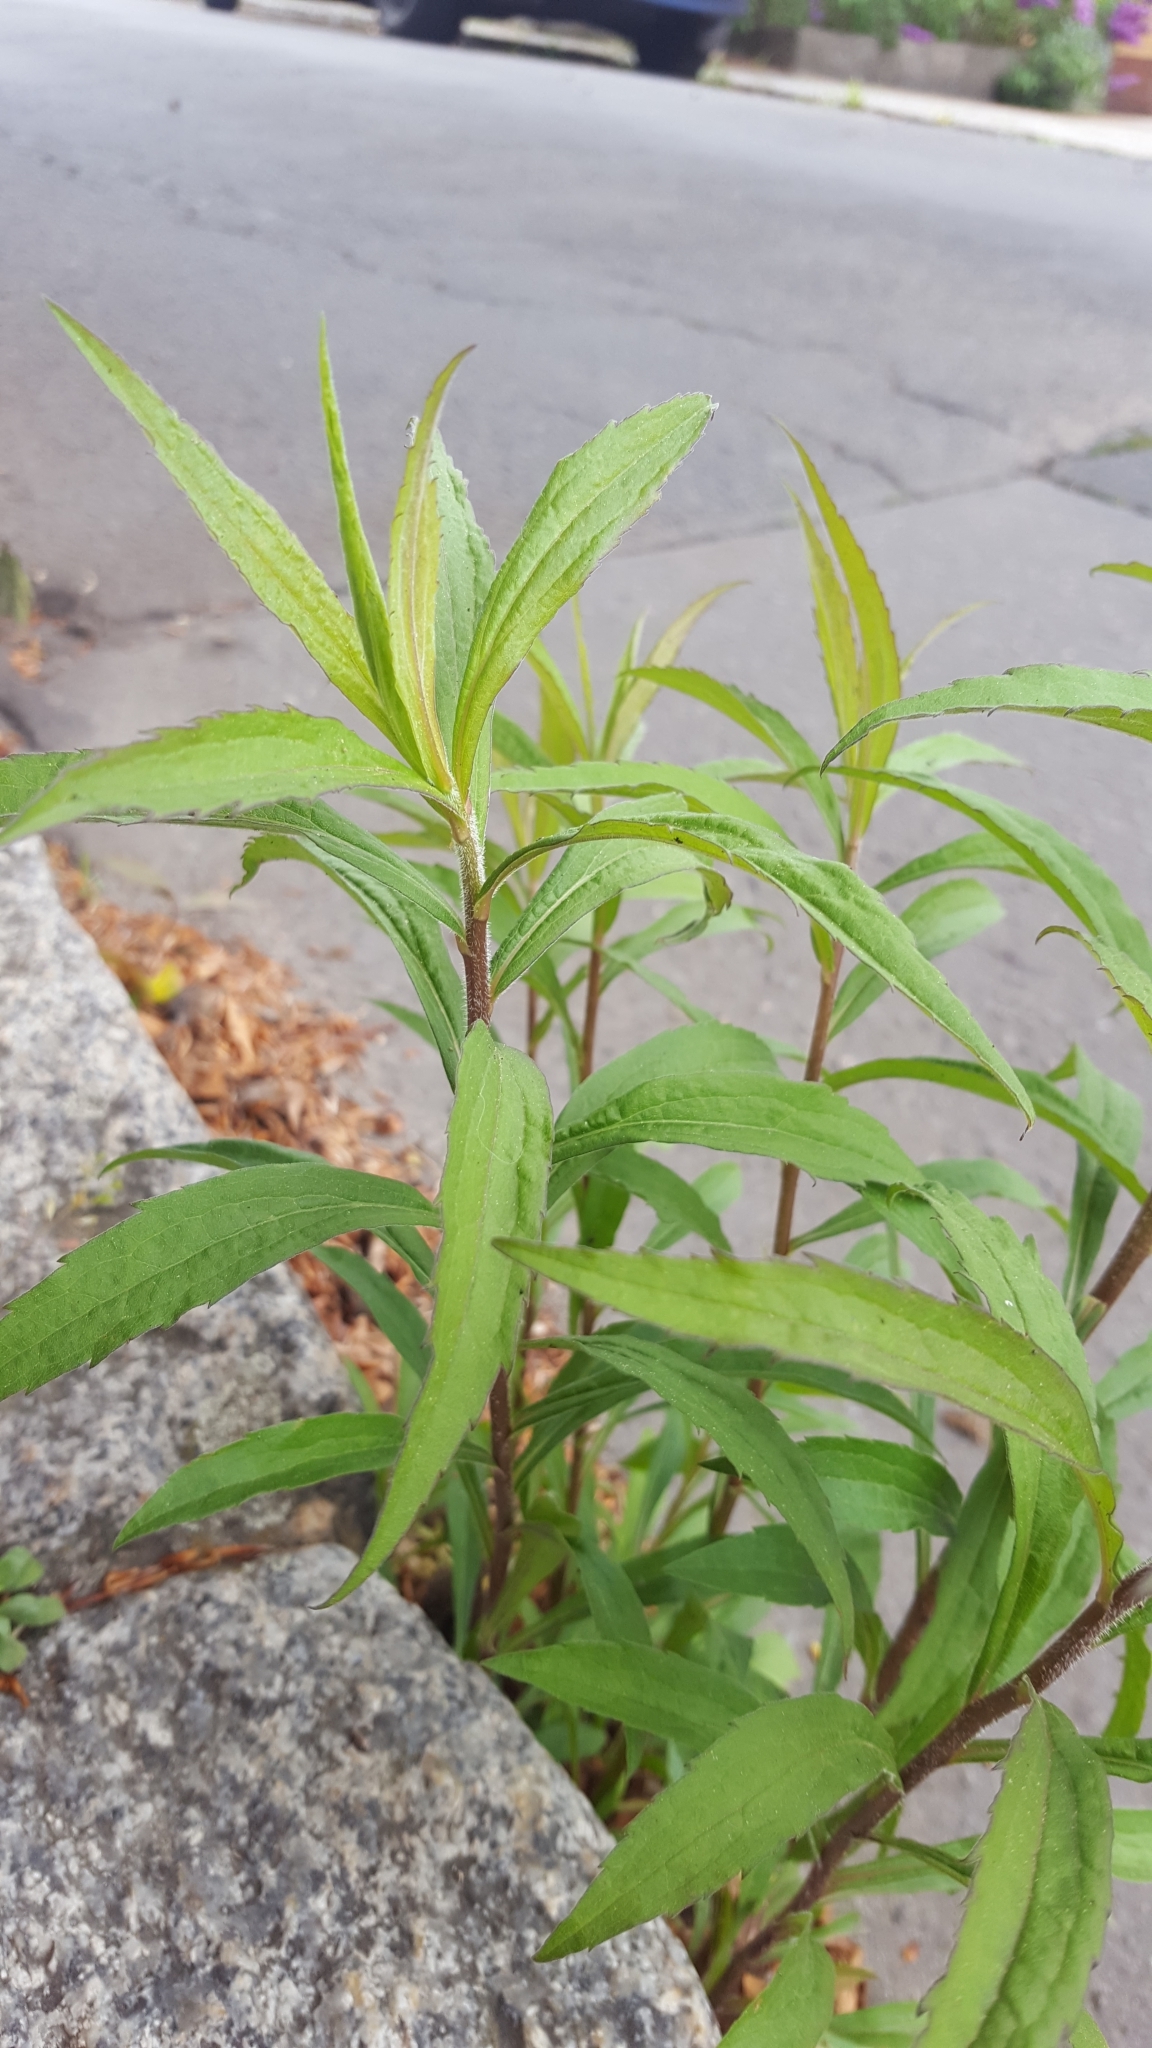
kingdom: Plantae
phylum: Tracheophyta
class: Magnoliopsida
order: Asterales
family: Asteraceae
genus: Solidago
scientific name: Solidago canadensis
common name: Canada goldenrod
